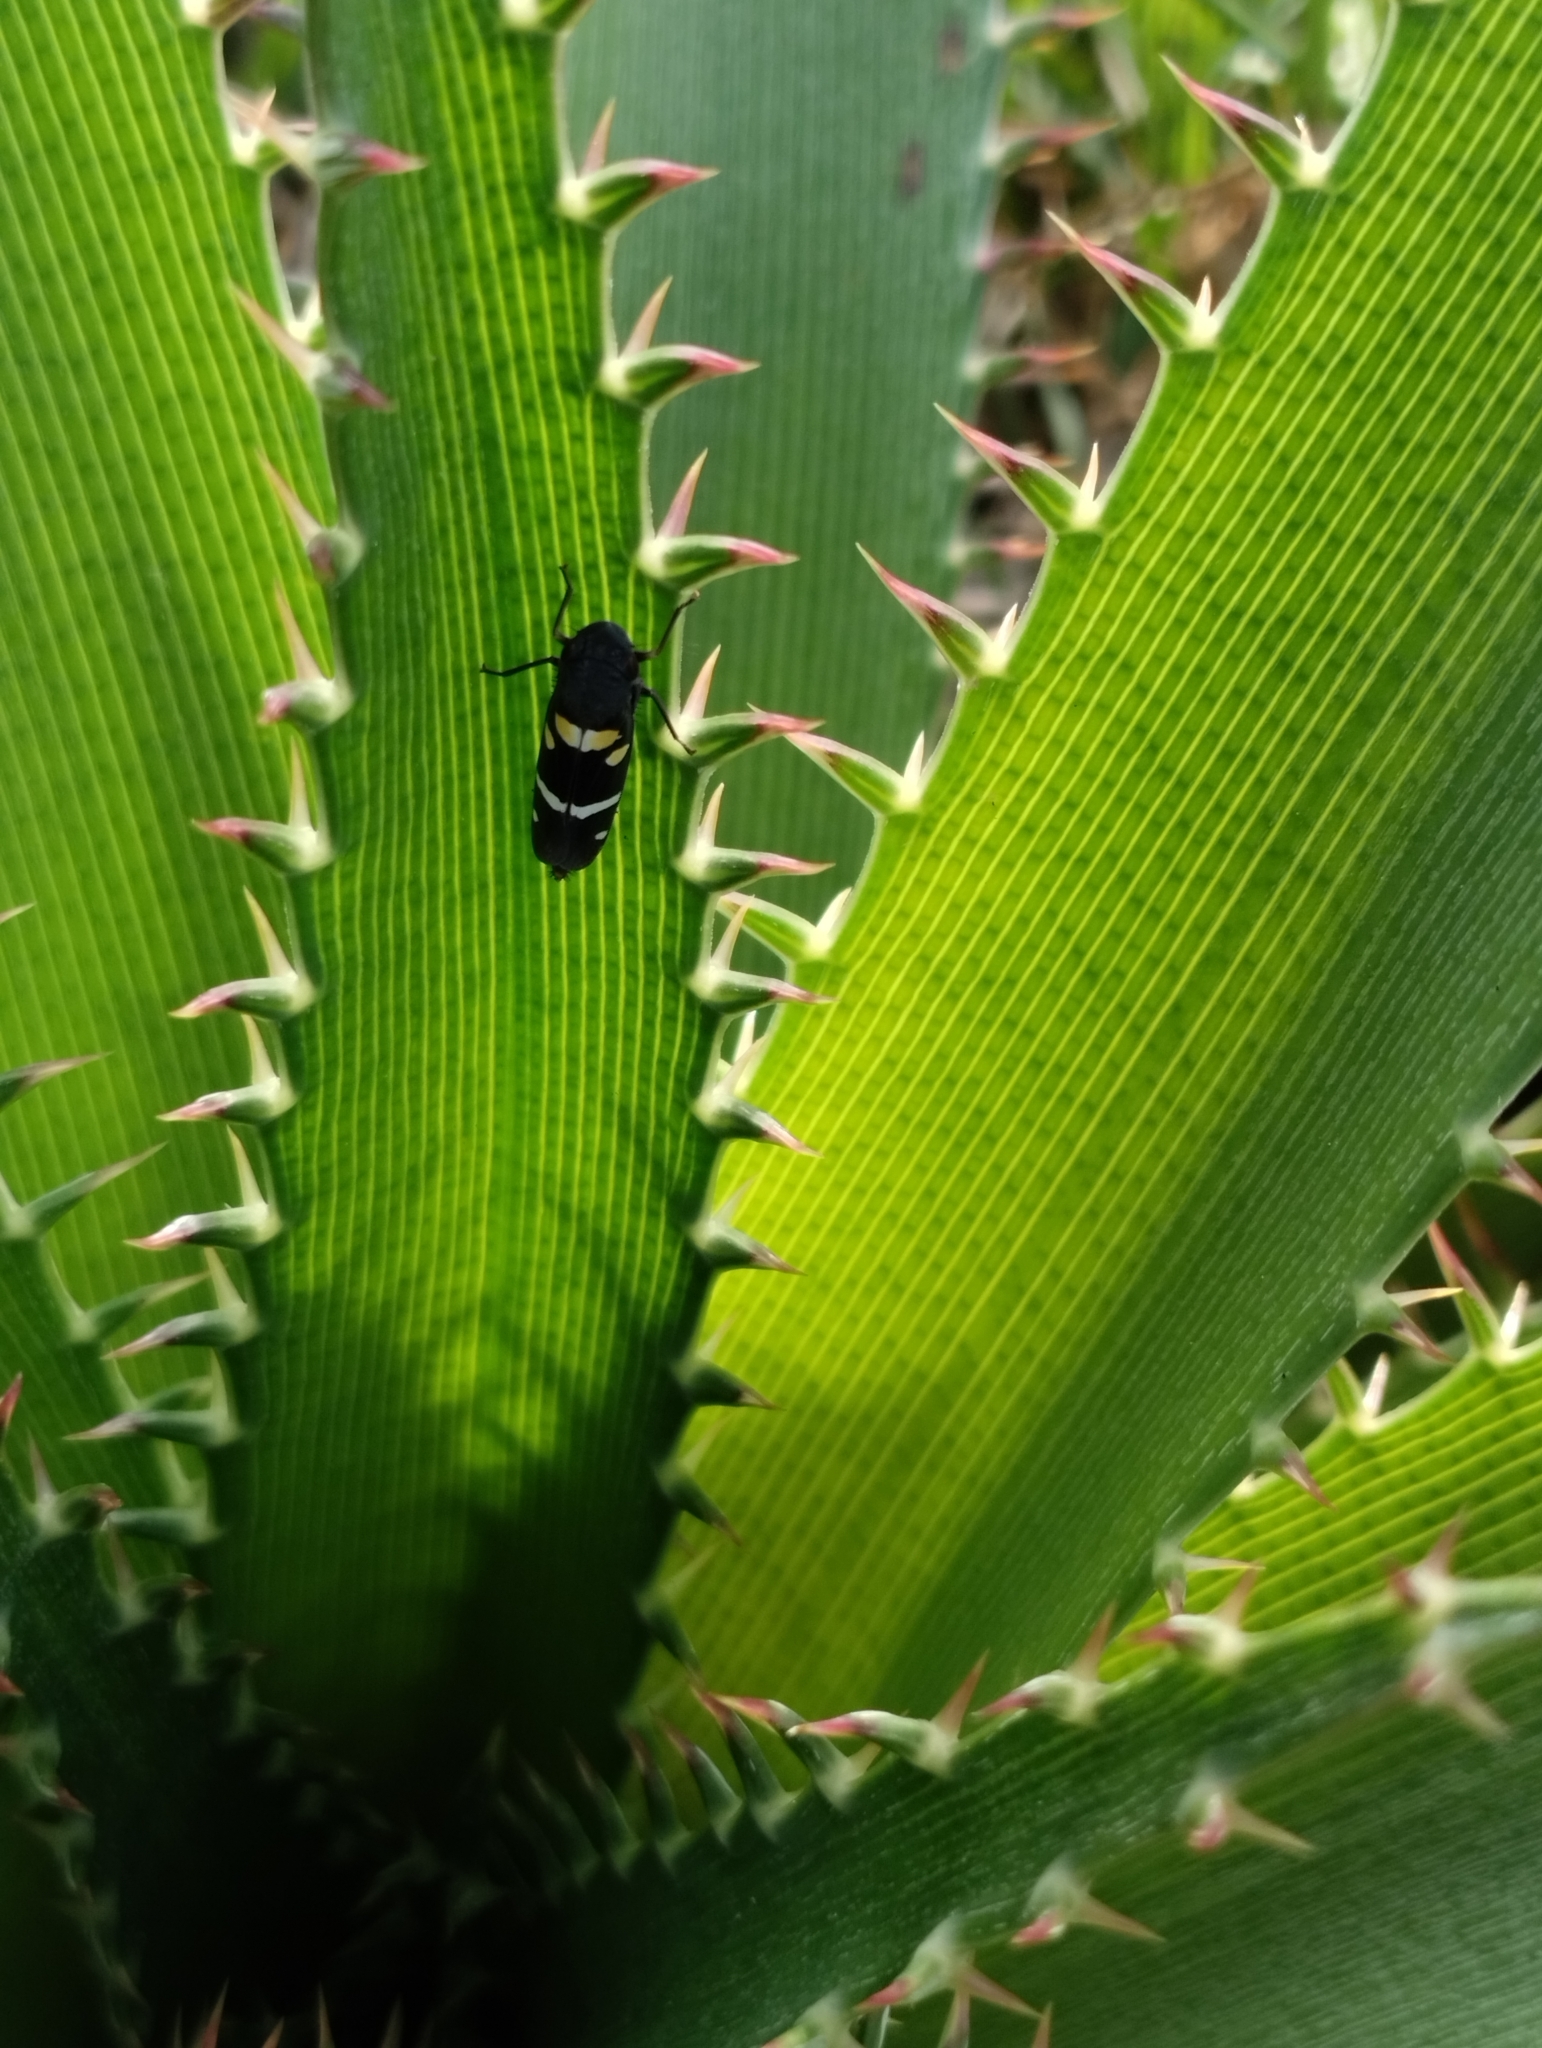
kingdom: Animalia
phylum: Arthropoda
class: Insecta
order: Hemiptera
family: Cicadellidae
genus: Balacha
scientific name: Balacha similis
